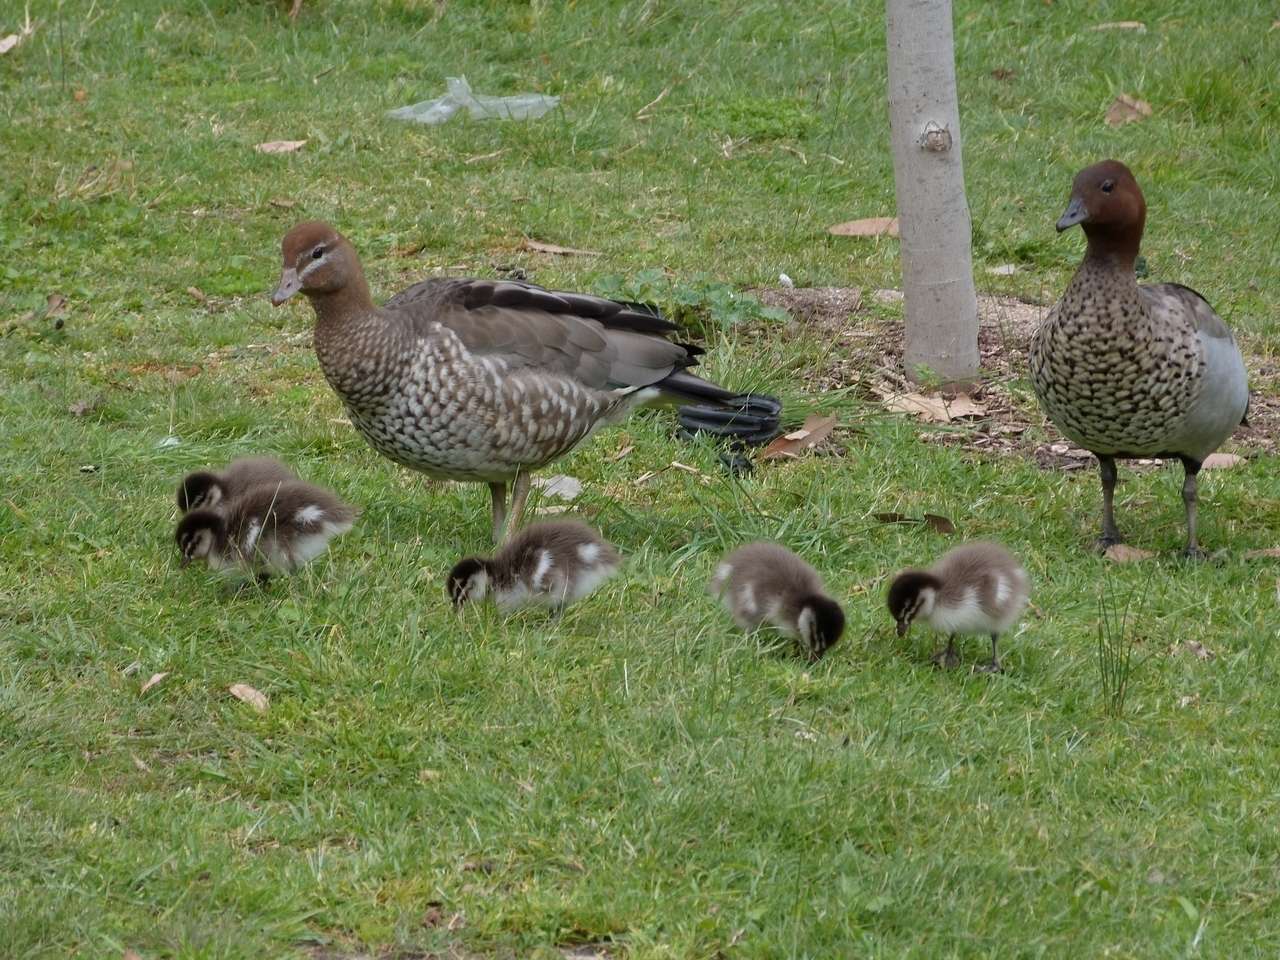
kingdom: Animalia
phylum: Chordata
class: Aves
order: Anseriformes
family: Anatidae
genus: Chenonetta
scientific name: Chenonetta jubata
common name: Maned duck
